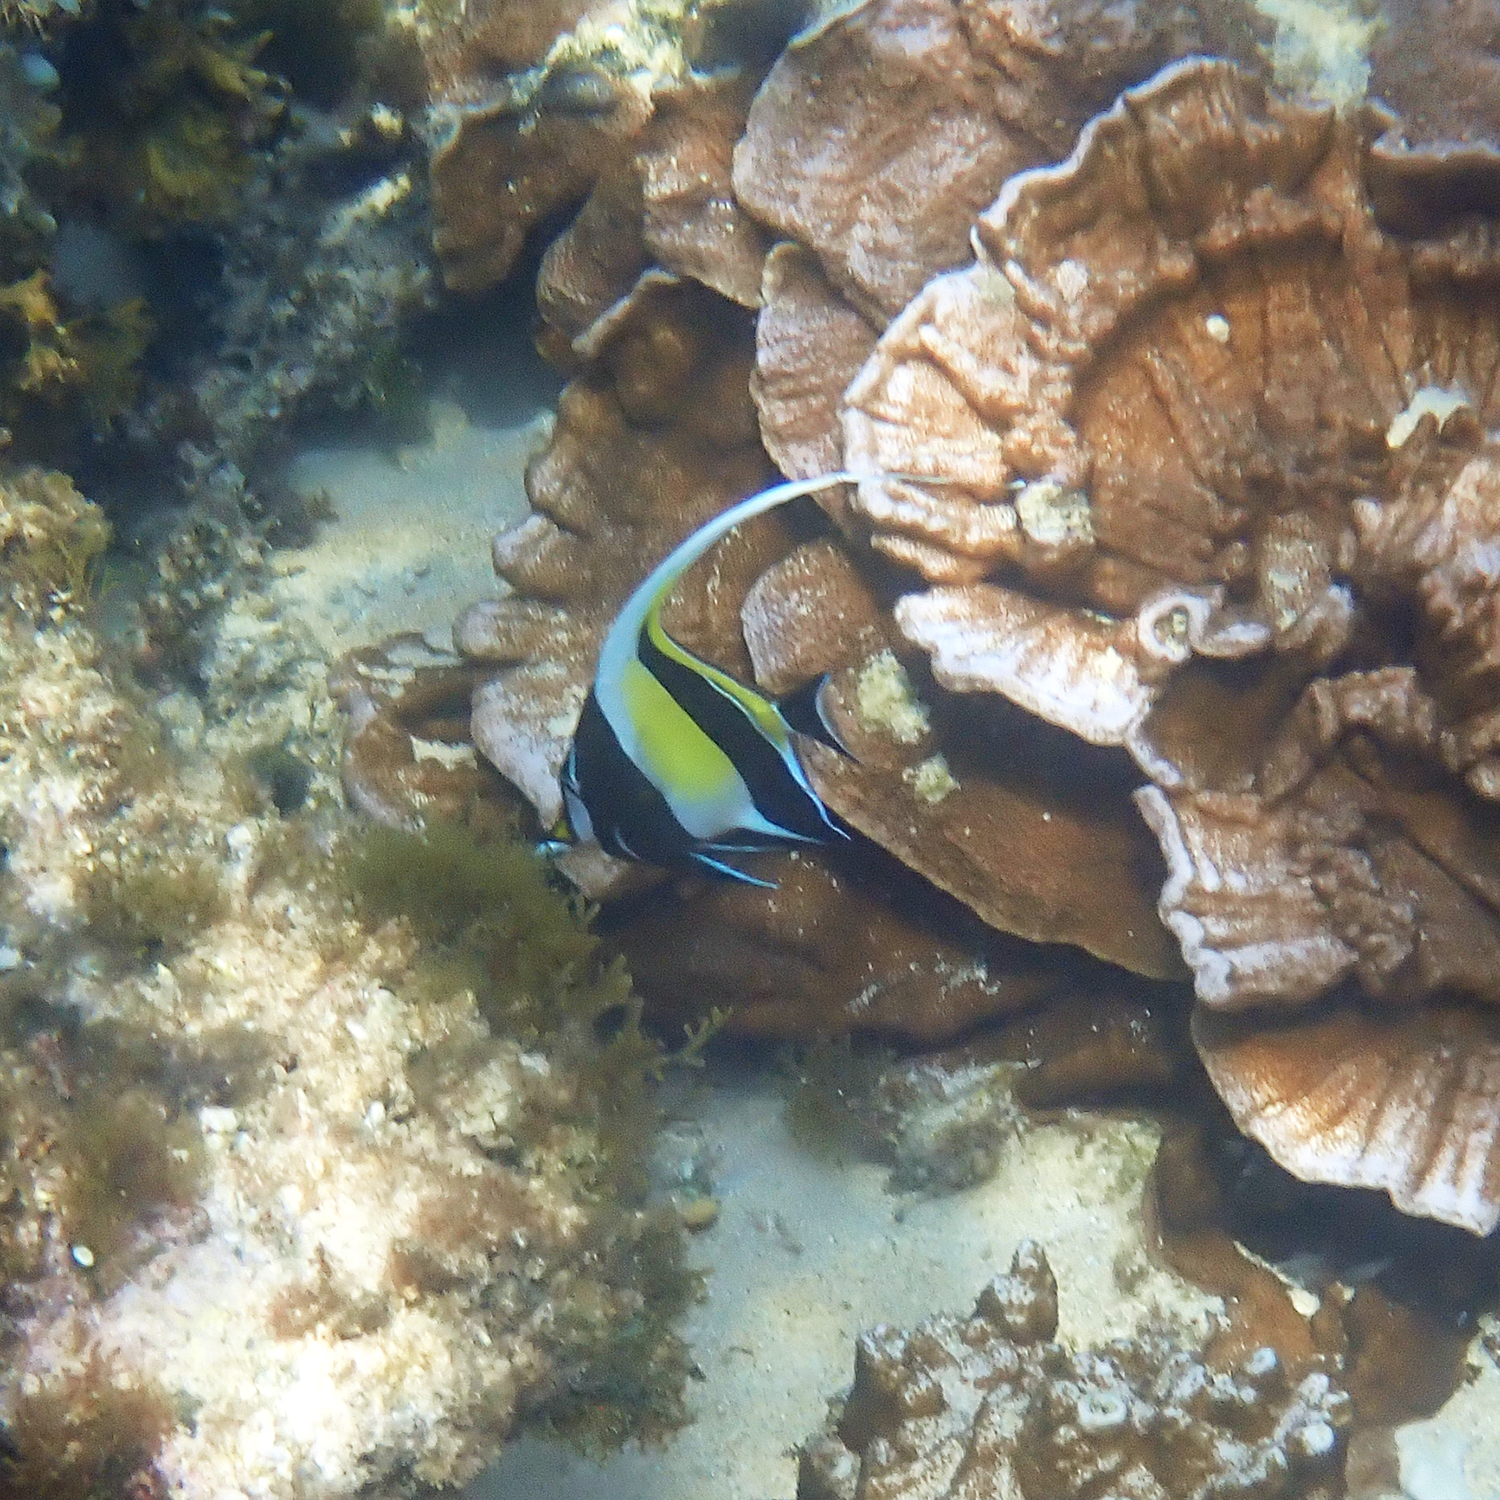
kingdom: Animalia
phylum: Chordata
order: Perciformes
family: Zanclidae
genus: Zanclus
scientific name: Zanclus cornutus
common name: Moorish idol
